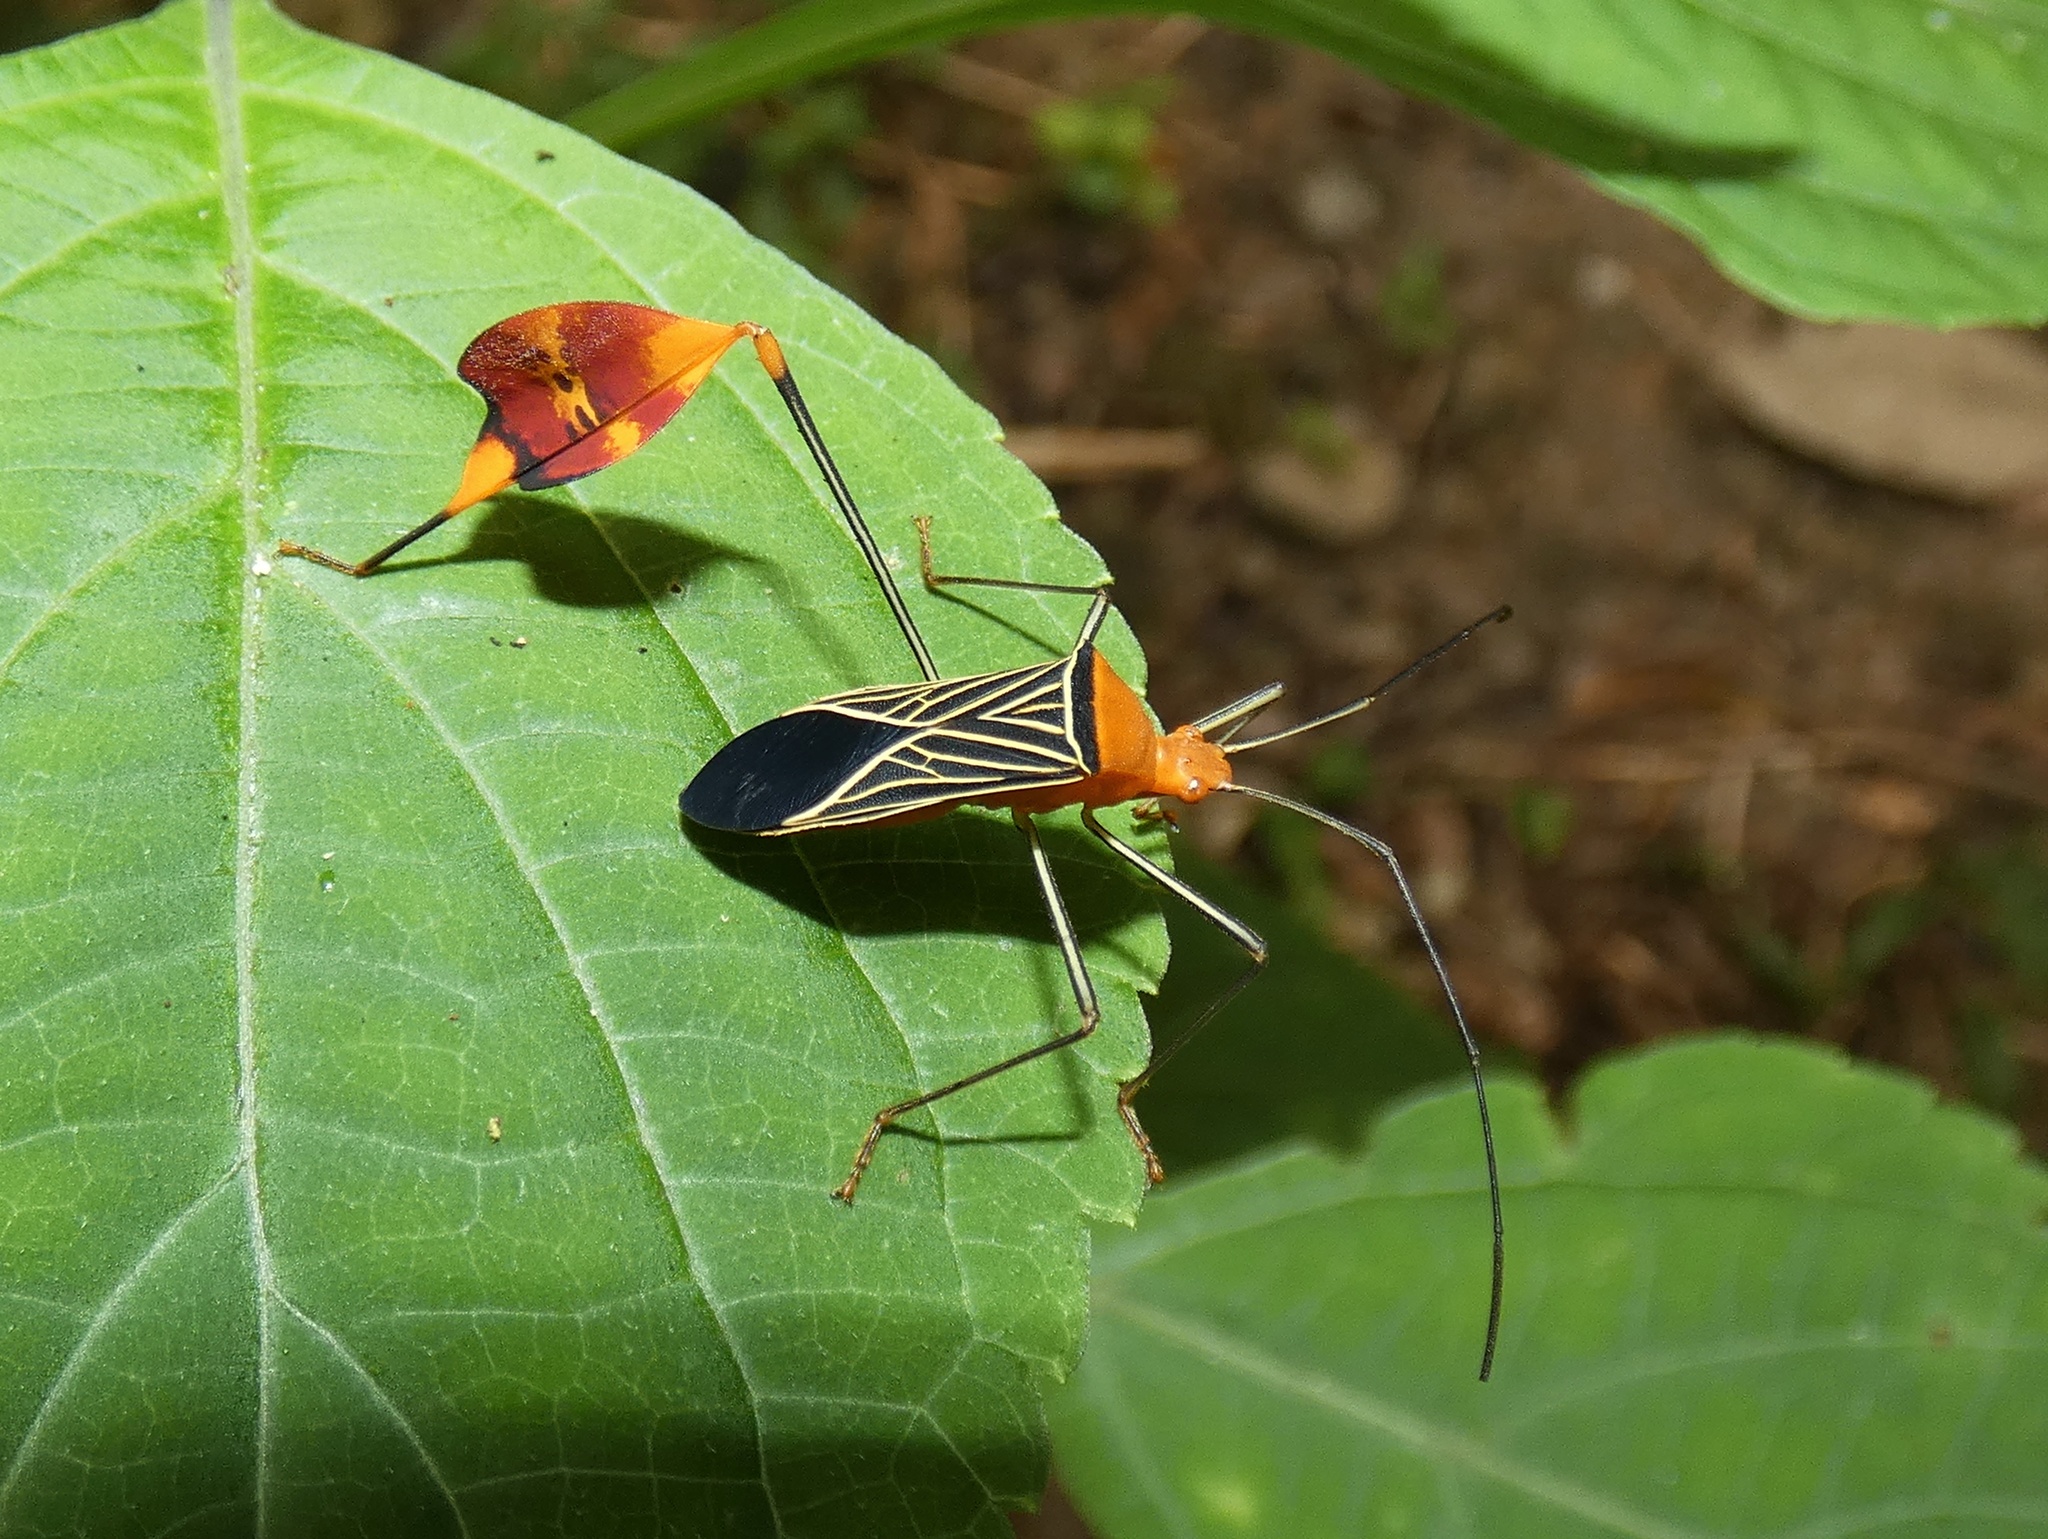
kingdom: Animalia
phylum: Arthropoda
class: Insecta
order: Hemiptera
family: Coreidae
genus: Bitta
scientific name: Bitta
